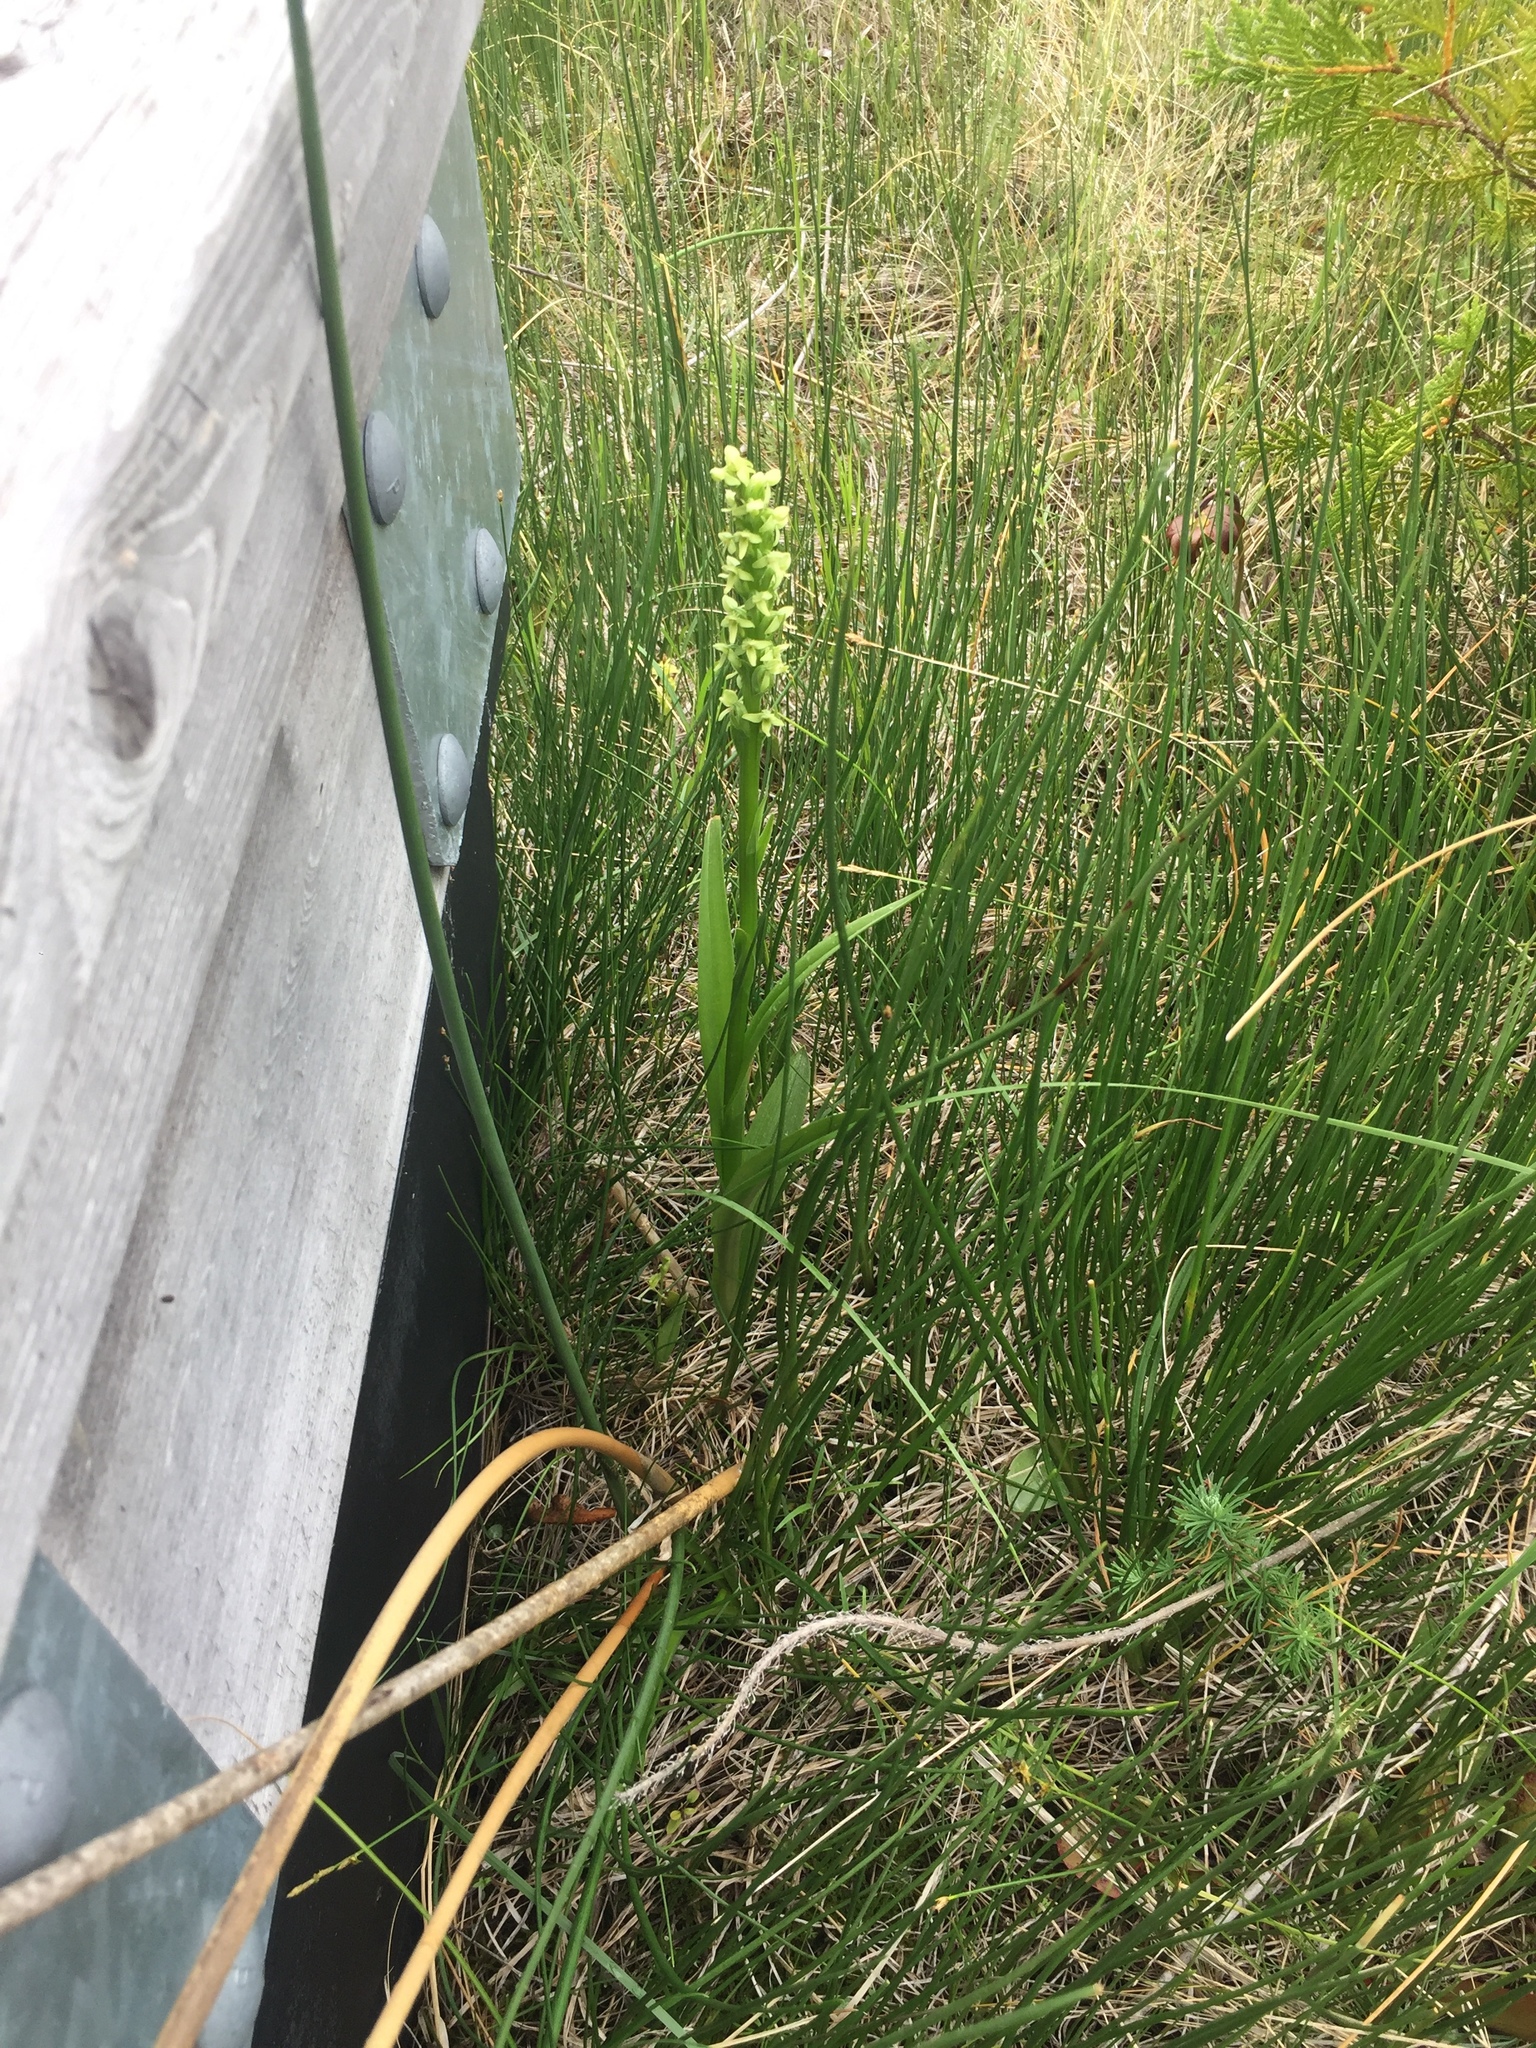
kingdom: Plantae
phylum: Tracheophyta
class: Liliopsida
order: Asparagales
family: Orchidaceae
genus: Platanthera
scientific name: Platanthera huronensis
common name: Fragrant green orchid
